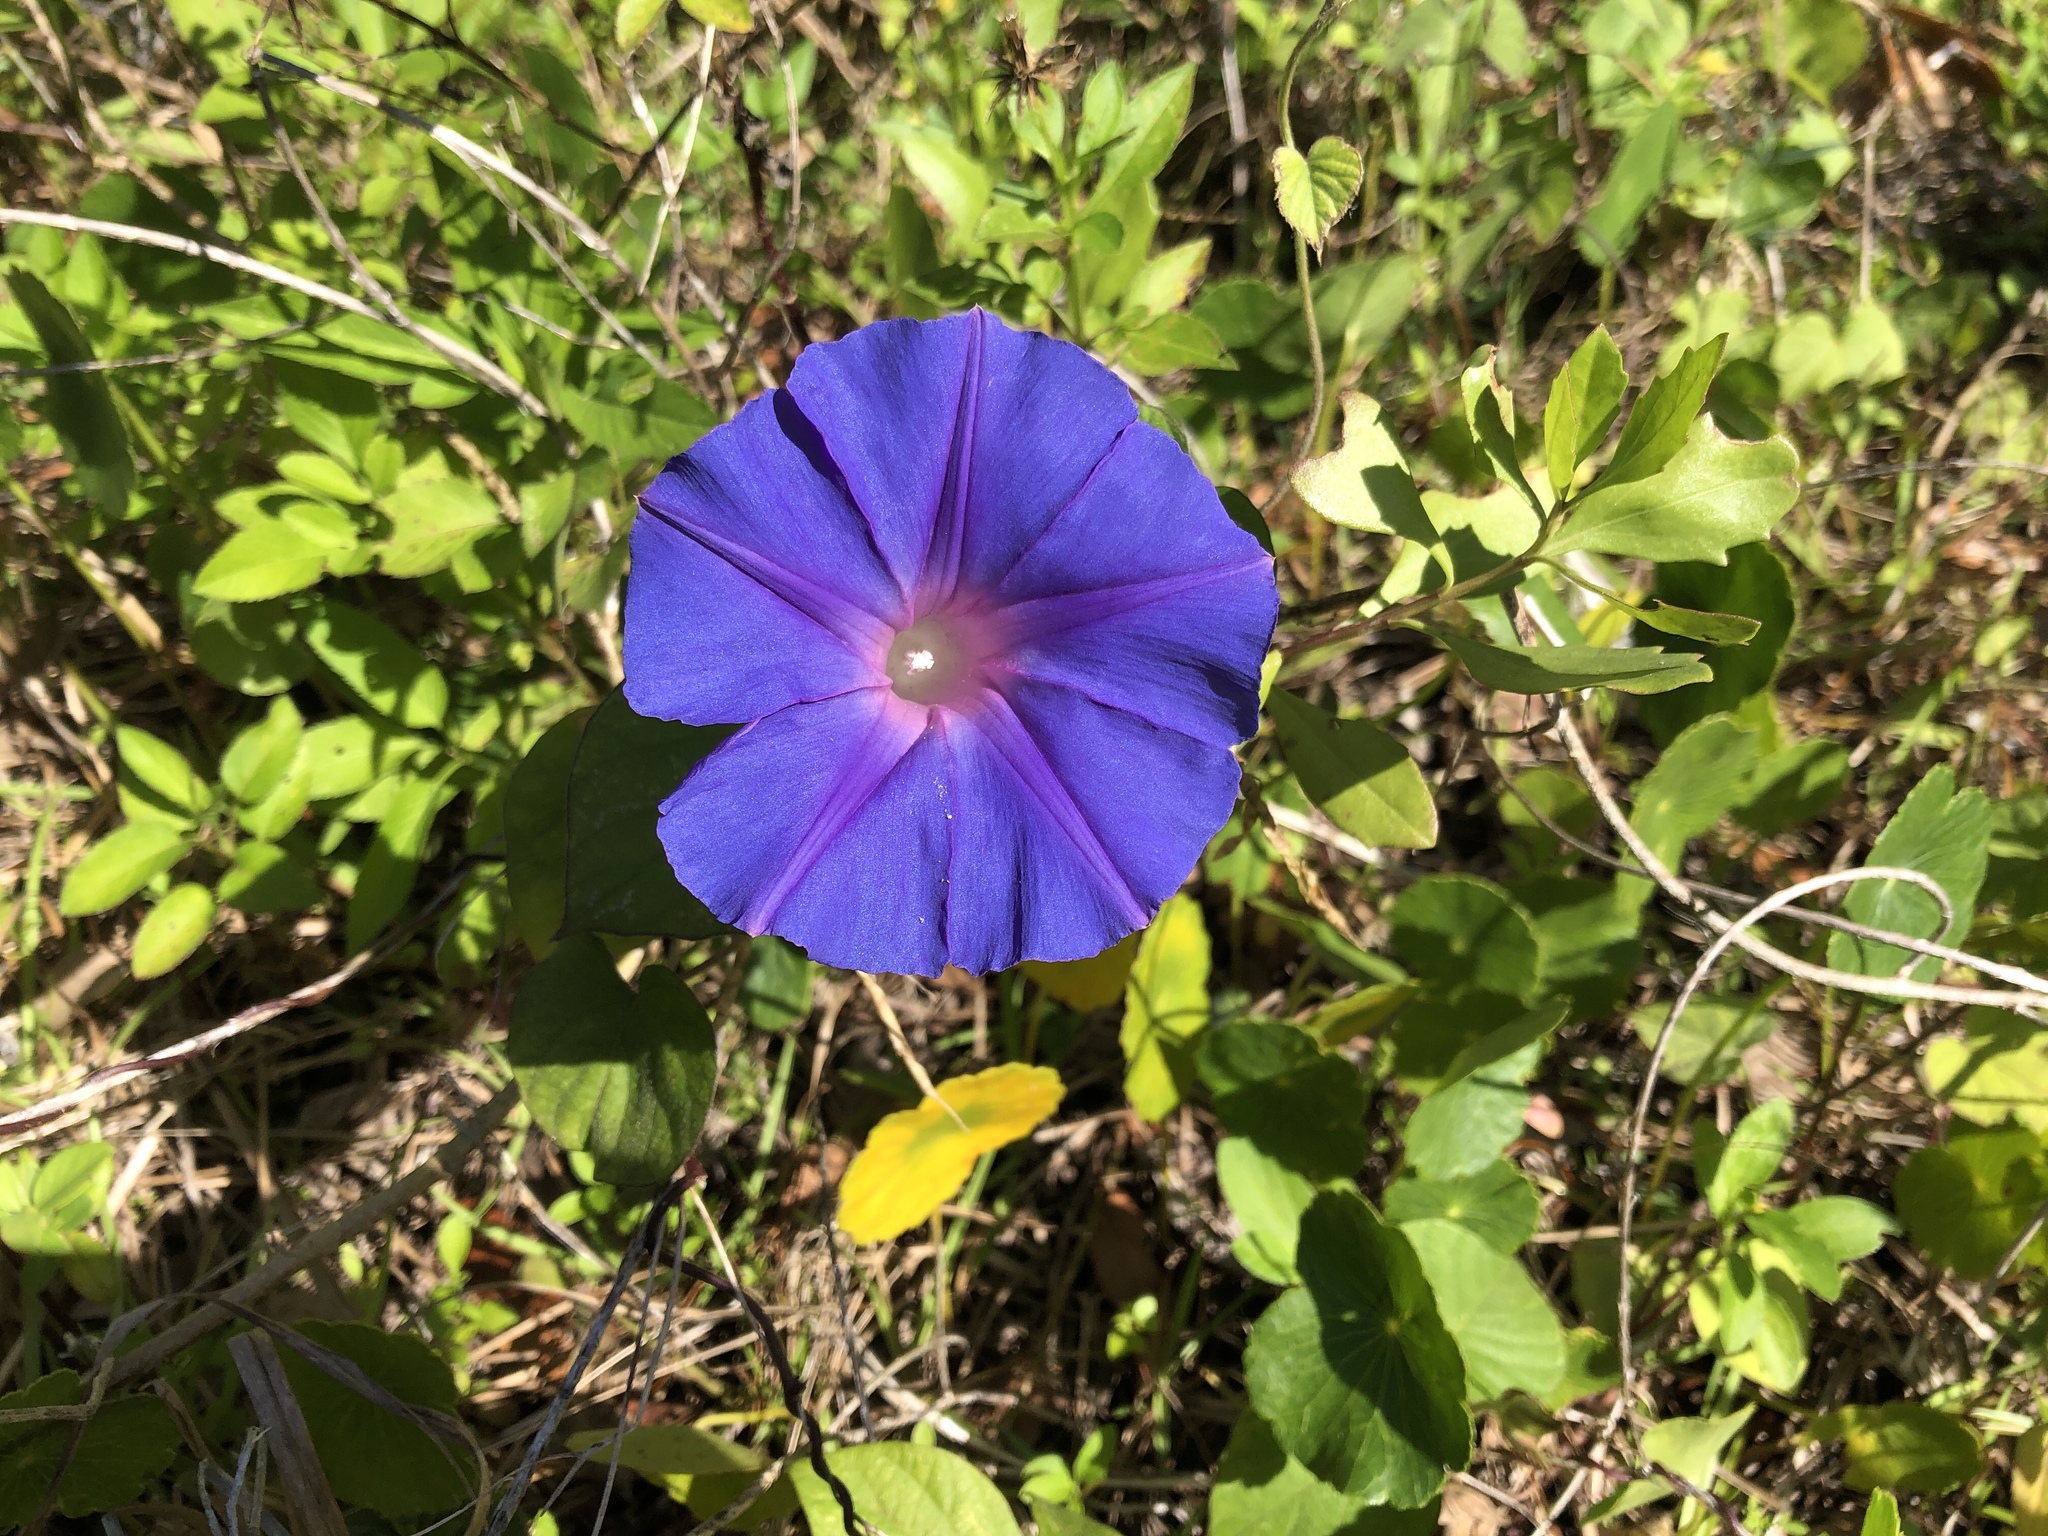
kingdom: Plantae
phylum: Tracheophyta
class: Magnoliopsida
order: Solanales
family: Convolvulaceae
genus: Ipomoea
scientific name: Ipomoea indica
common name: Blue dawnflower
